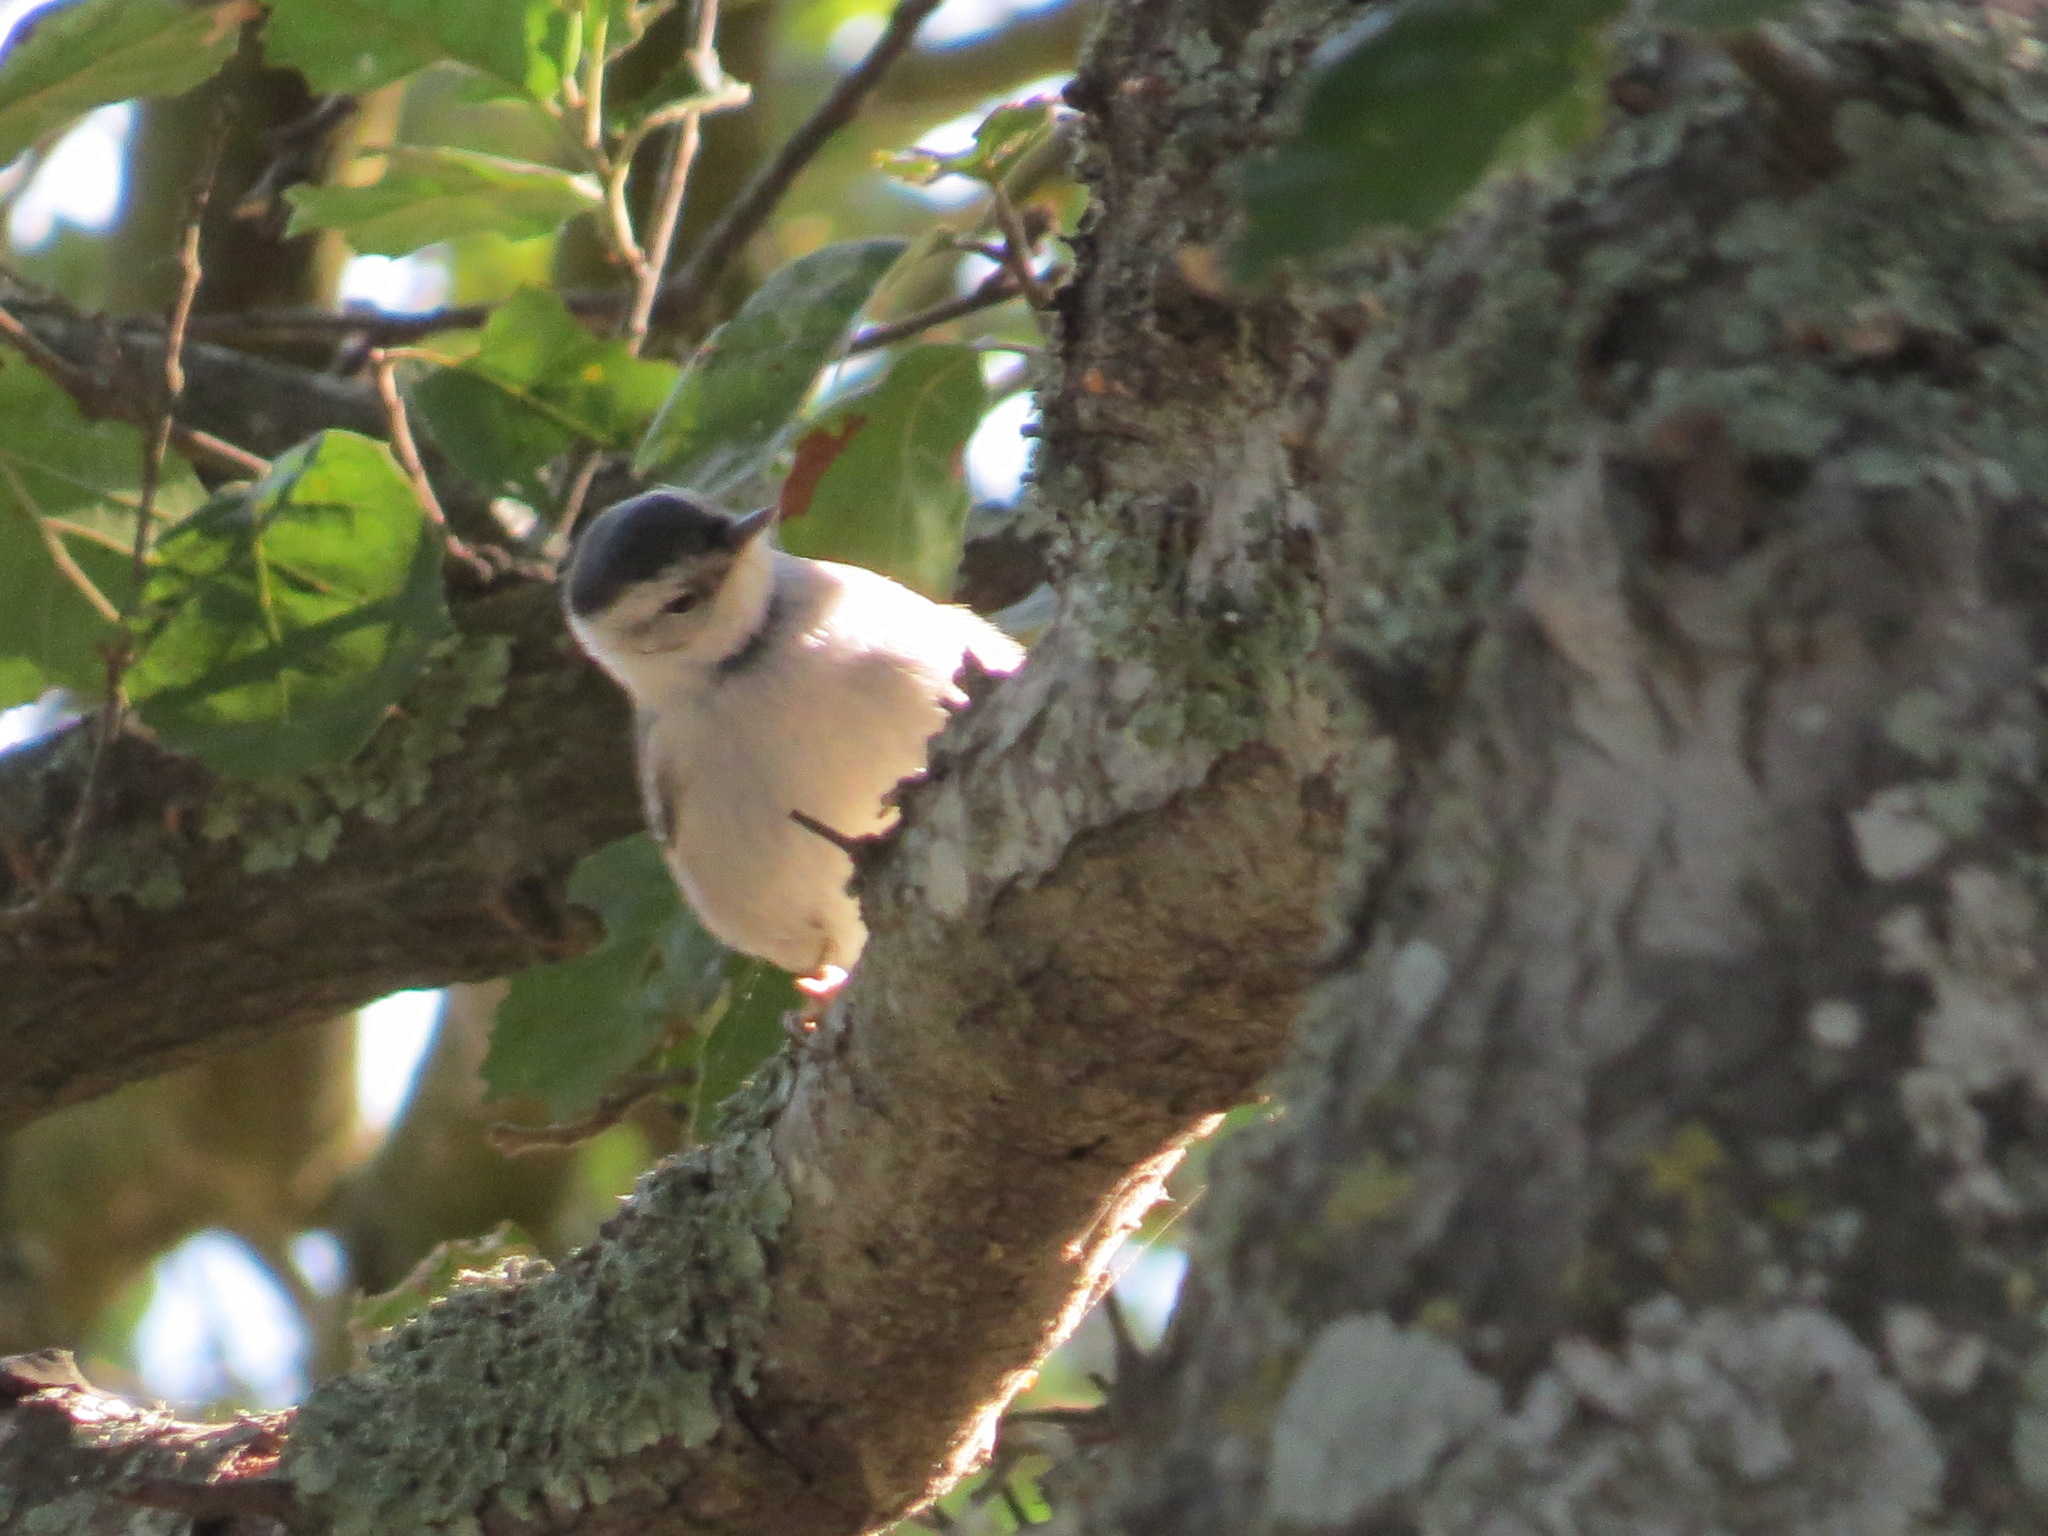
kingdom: Animalia
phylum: Chordata
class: Aves
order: Passeriformes
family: Sittidae
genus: Sitta
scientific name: Sitta carolinensis
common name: White-breasted nuthatch
